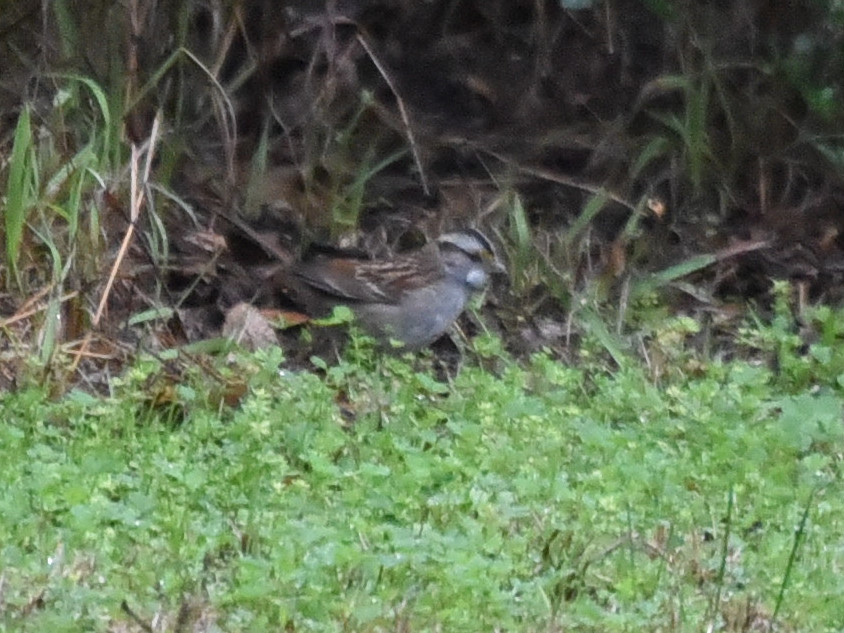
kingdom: Animalia
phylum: Chordata
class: Aves
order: Passeriformes
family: Passerellidae
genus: Zonotrichia
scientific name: Zonotrichia albicollis
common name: White-throated sparrow
